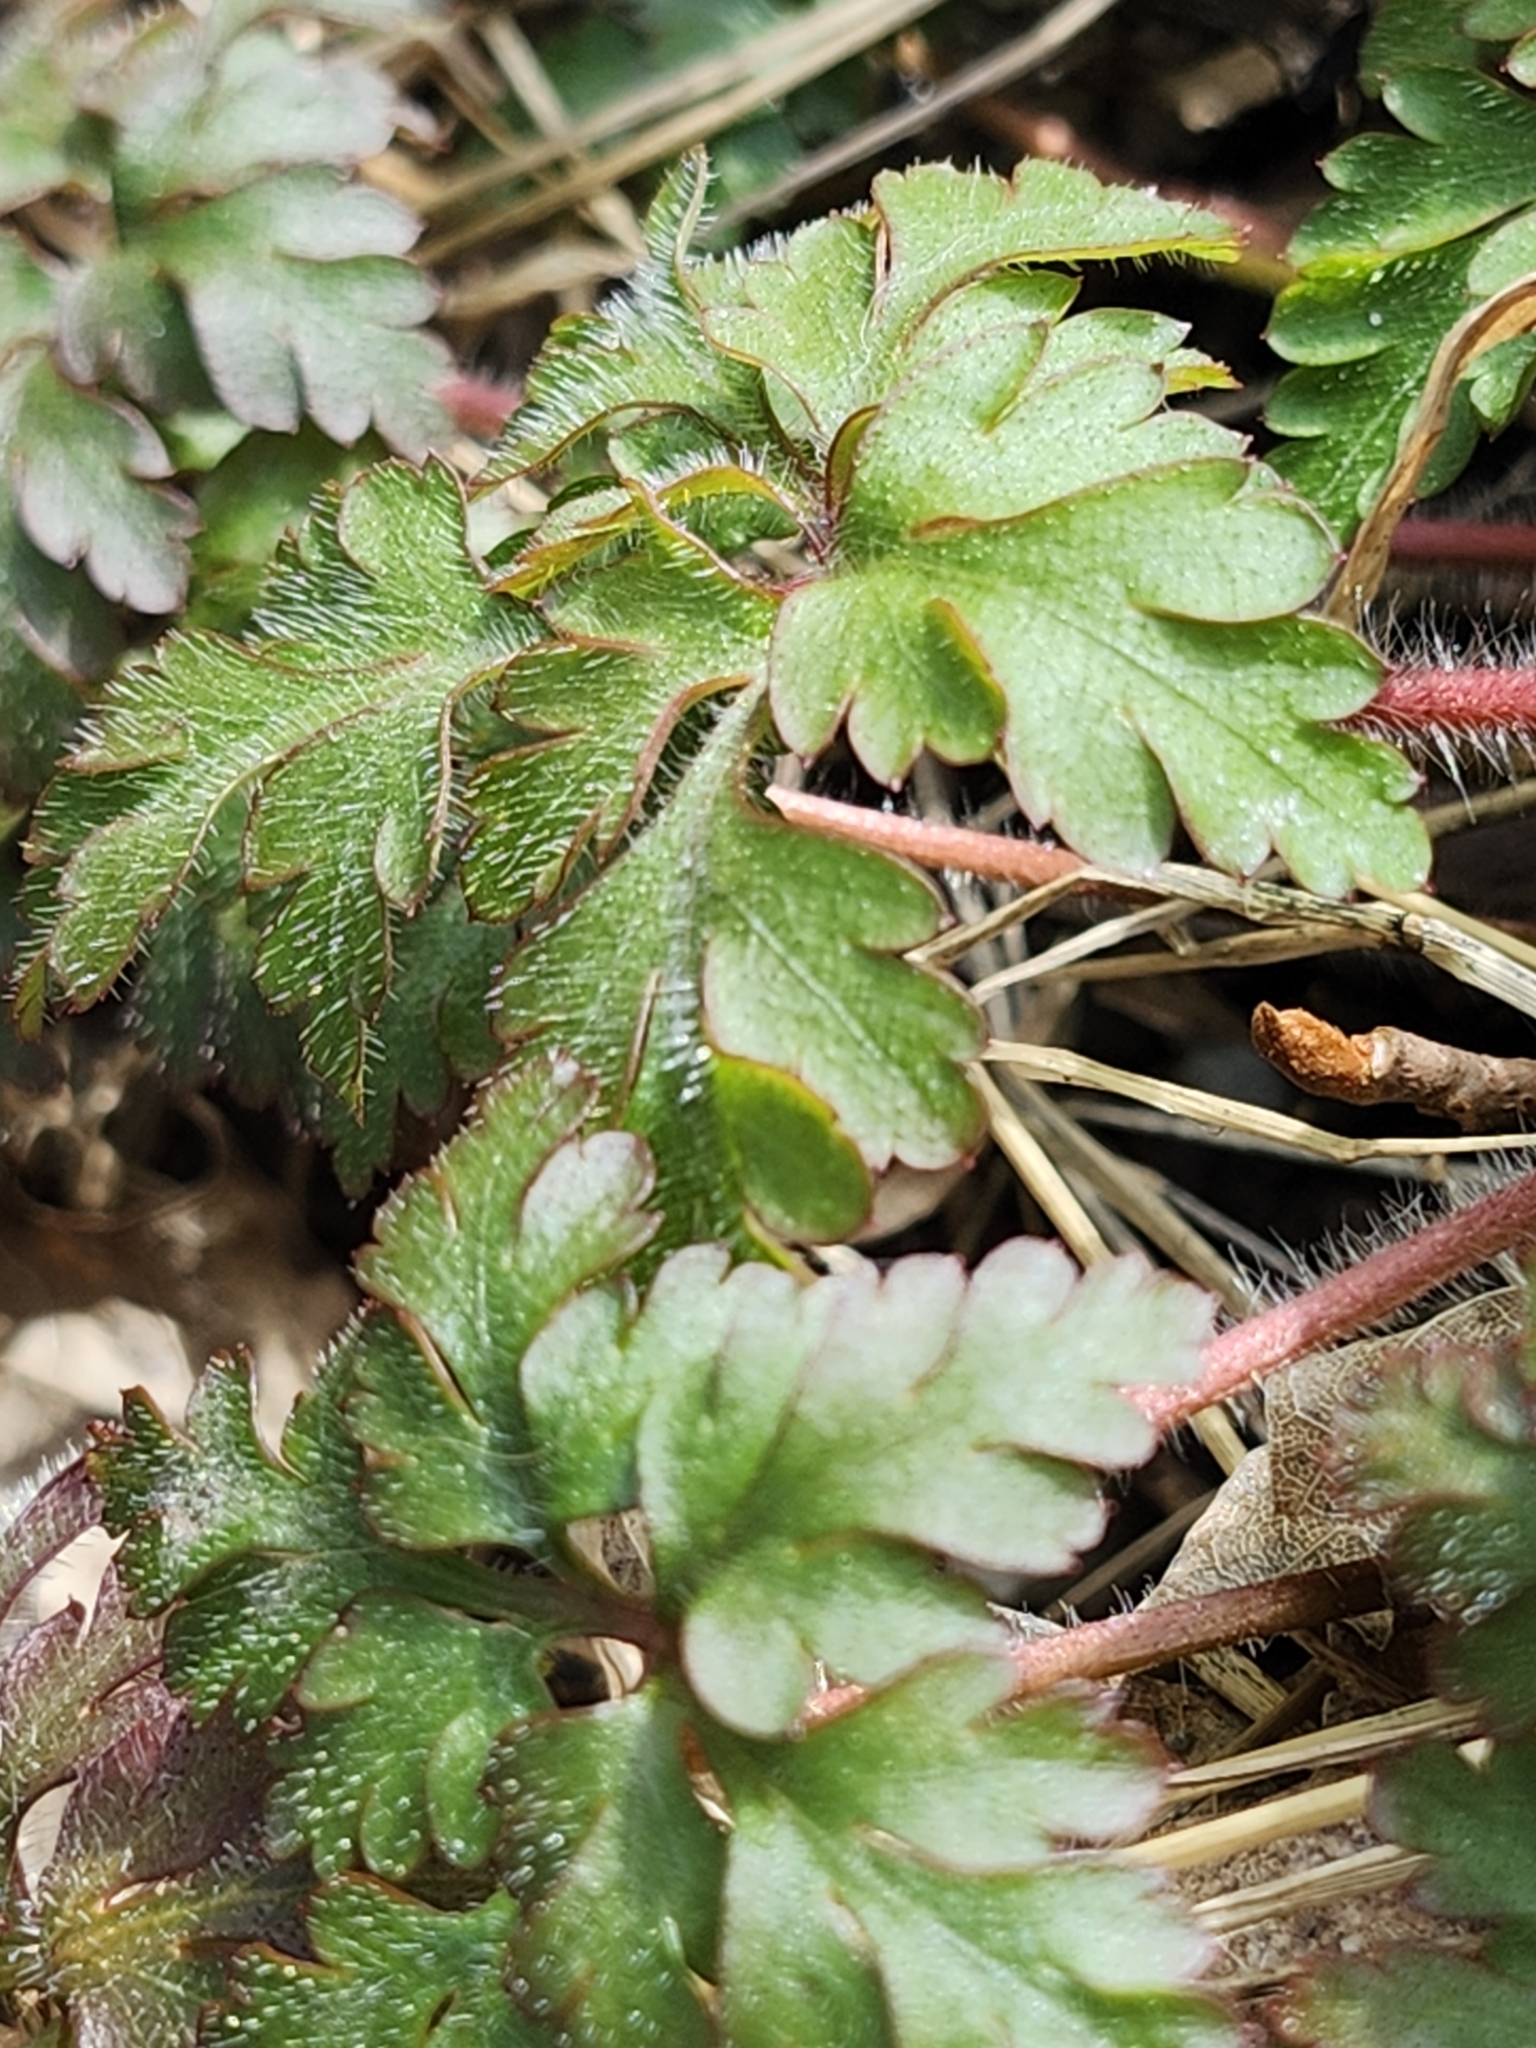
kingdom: Plantae
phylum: Tracheophyta
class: Magnoliopsida
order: Geraniales
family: Geraniaceae
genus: Geranium
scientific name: Geranium robertianum
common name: Herb-robert
